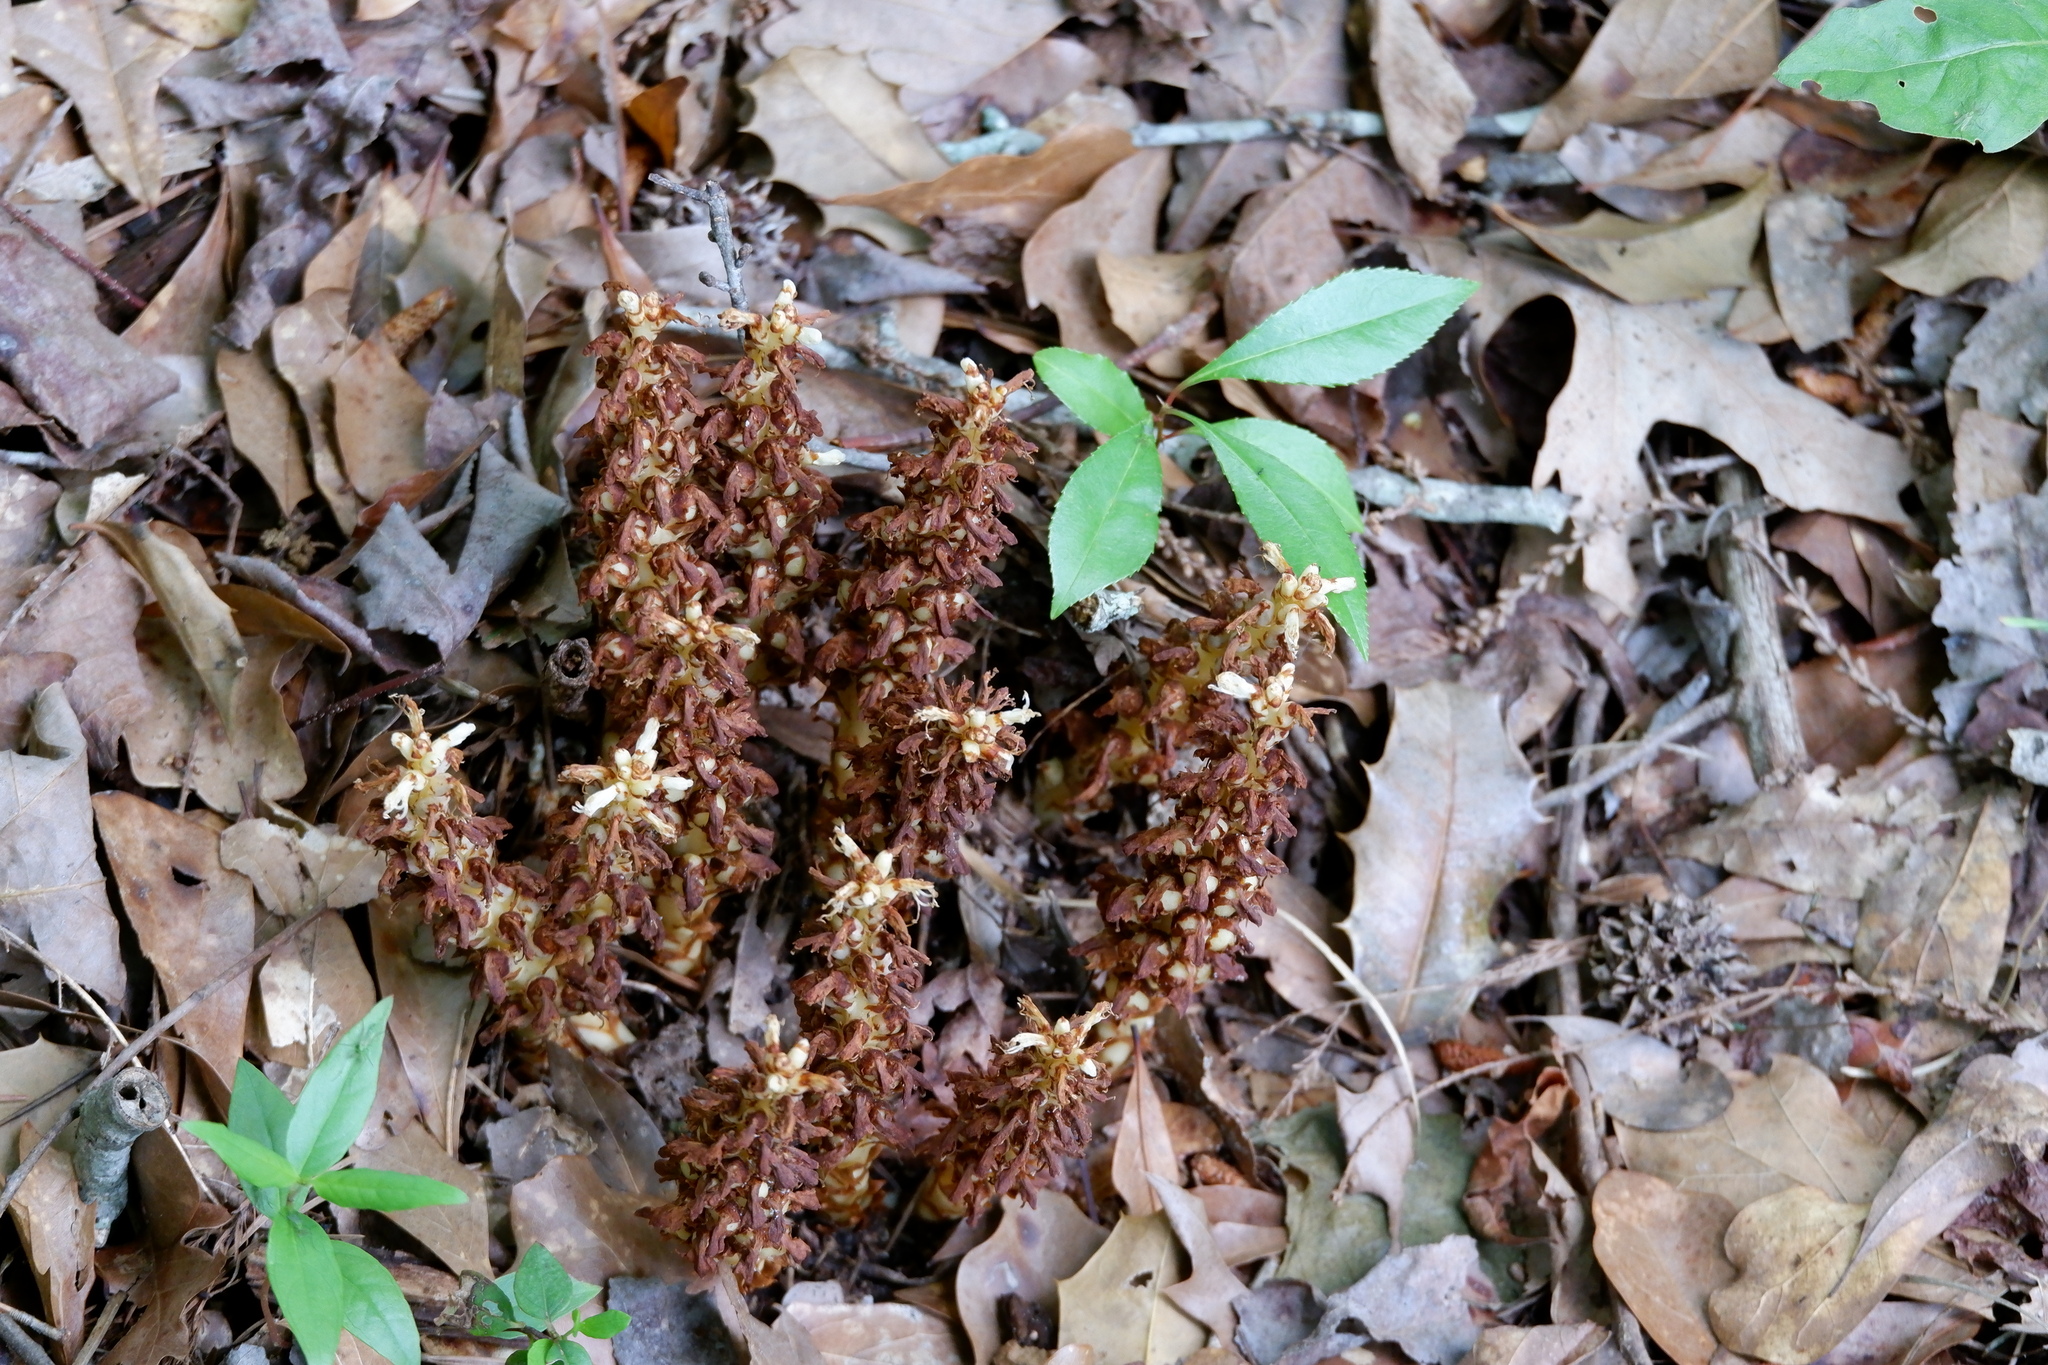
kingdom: Plantae
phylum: Tracheophyta
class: Magnoliopsida
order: Lamiales
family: Orobanchaceae
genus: Conopholis
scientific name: Conopholis americana
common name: American cancer-root
